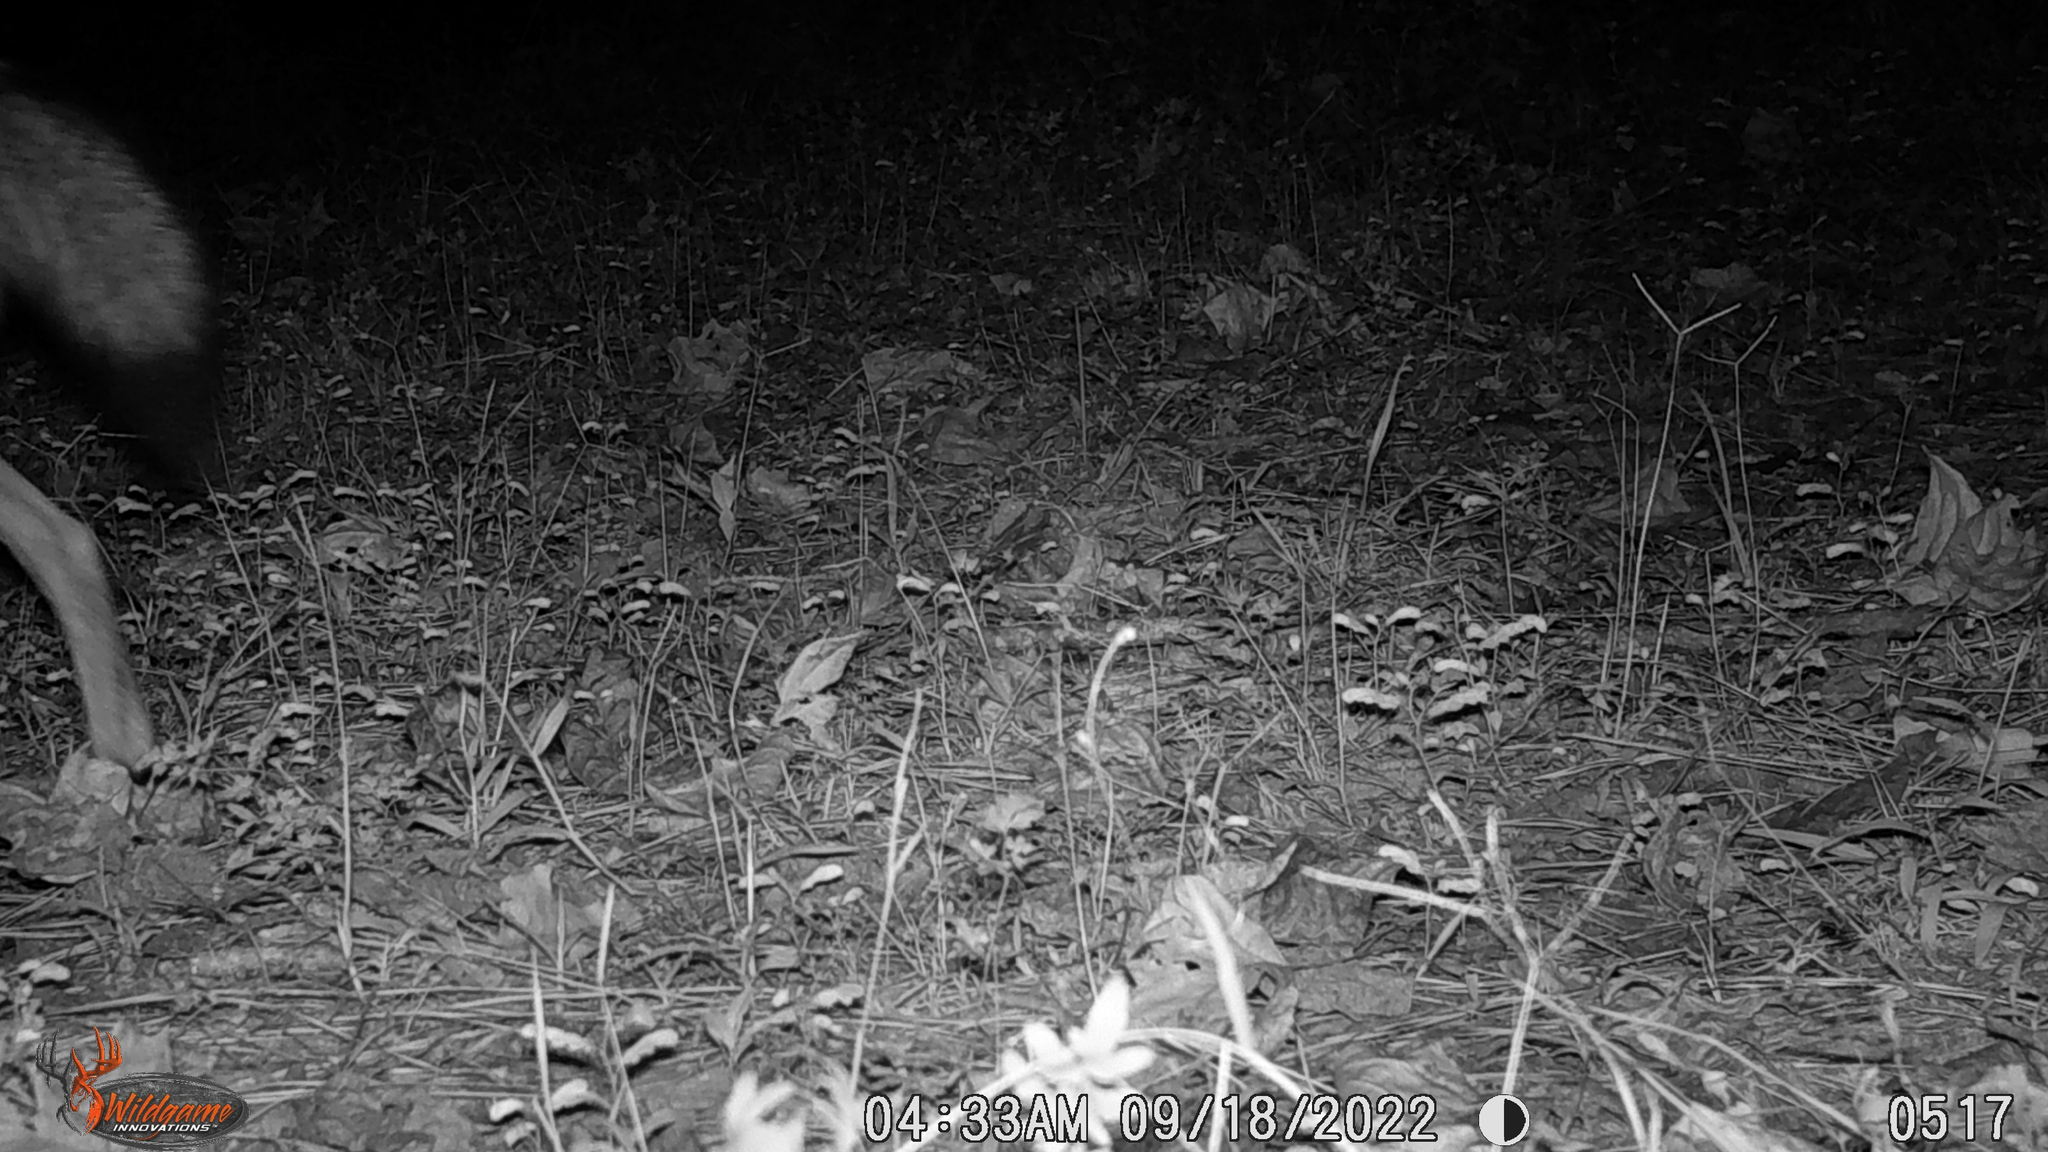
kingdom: Animalia
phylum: Chordata
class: Mammalia
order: Carnivora
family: Canidae
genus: Canis
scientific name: Canis latrans
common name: Coyote
